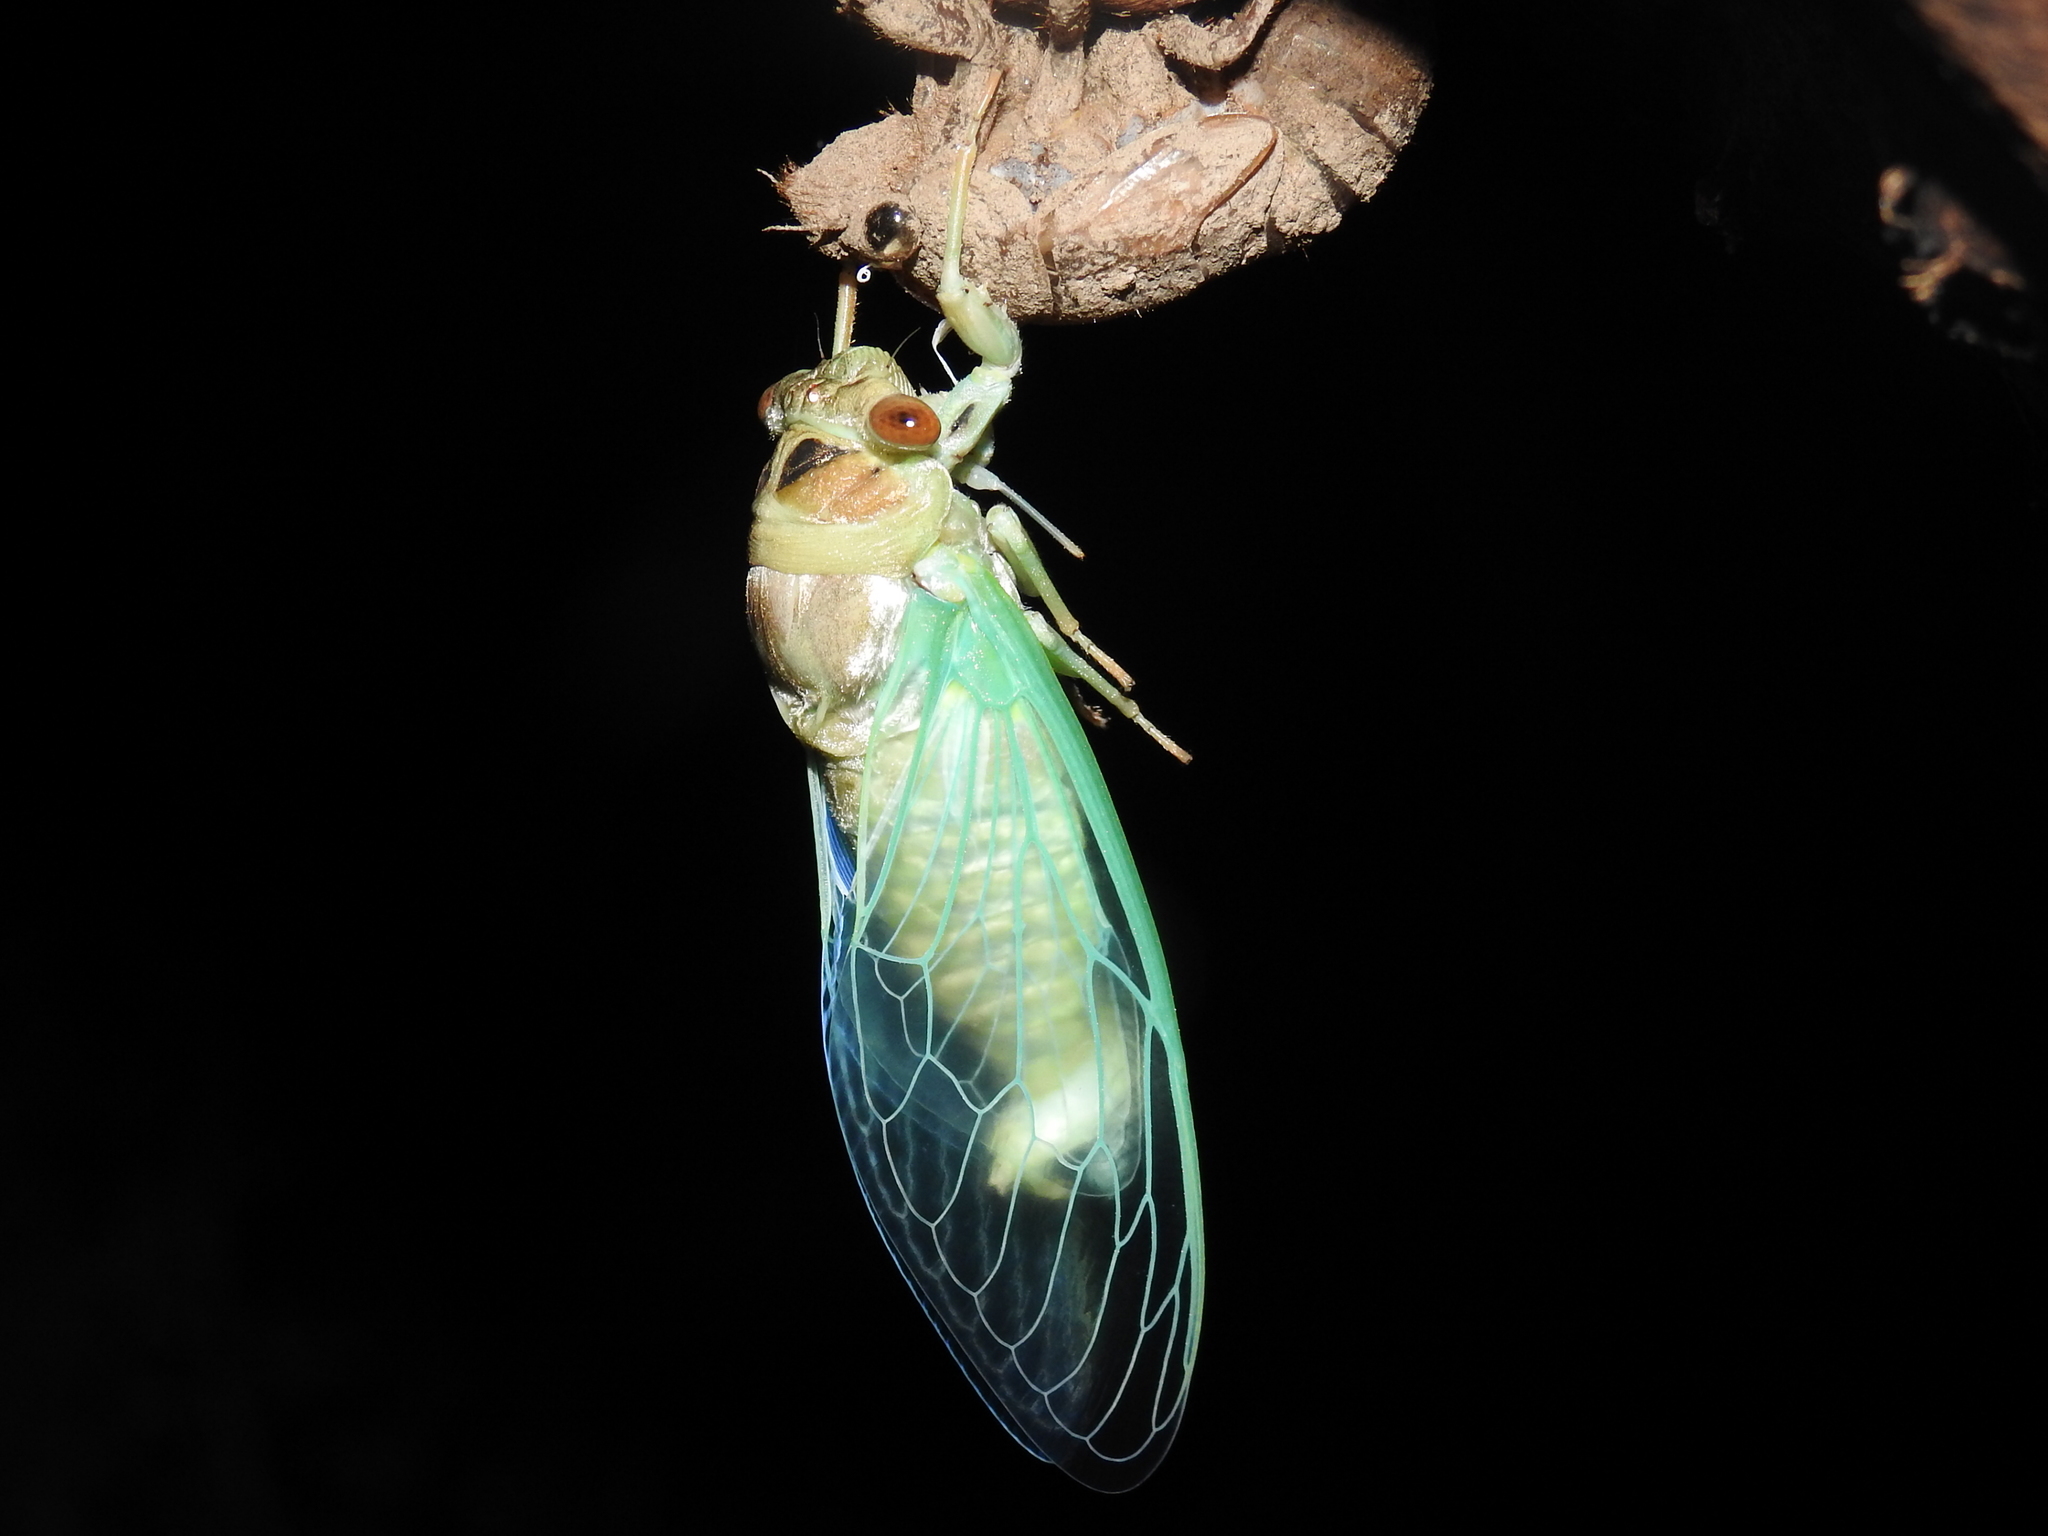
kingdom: Animalia
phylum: Arthropoda
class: Insecta
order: Hemiptera
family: Cicadidae
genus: Megatibicen
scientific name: Megatibicen cultriformis
